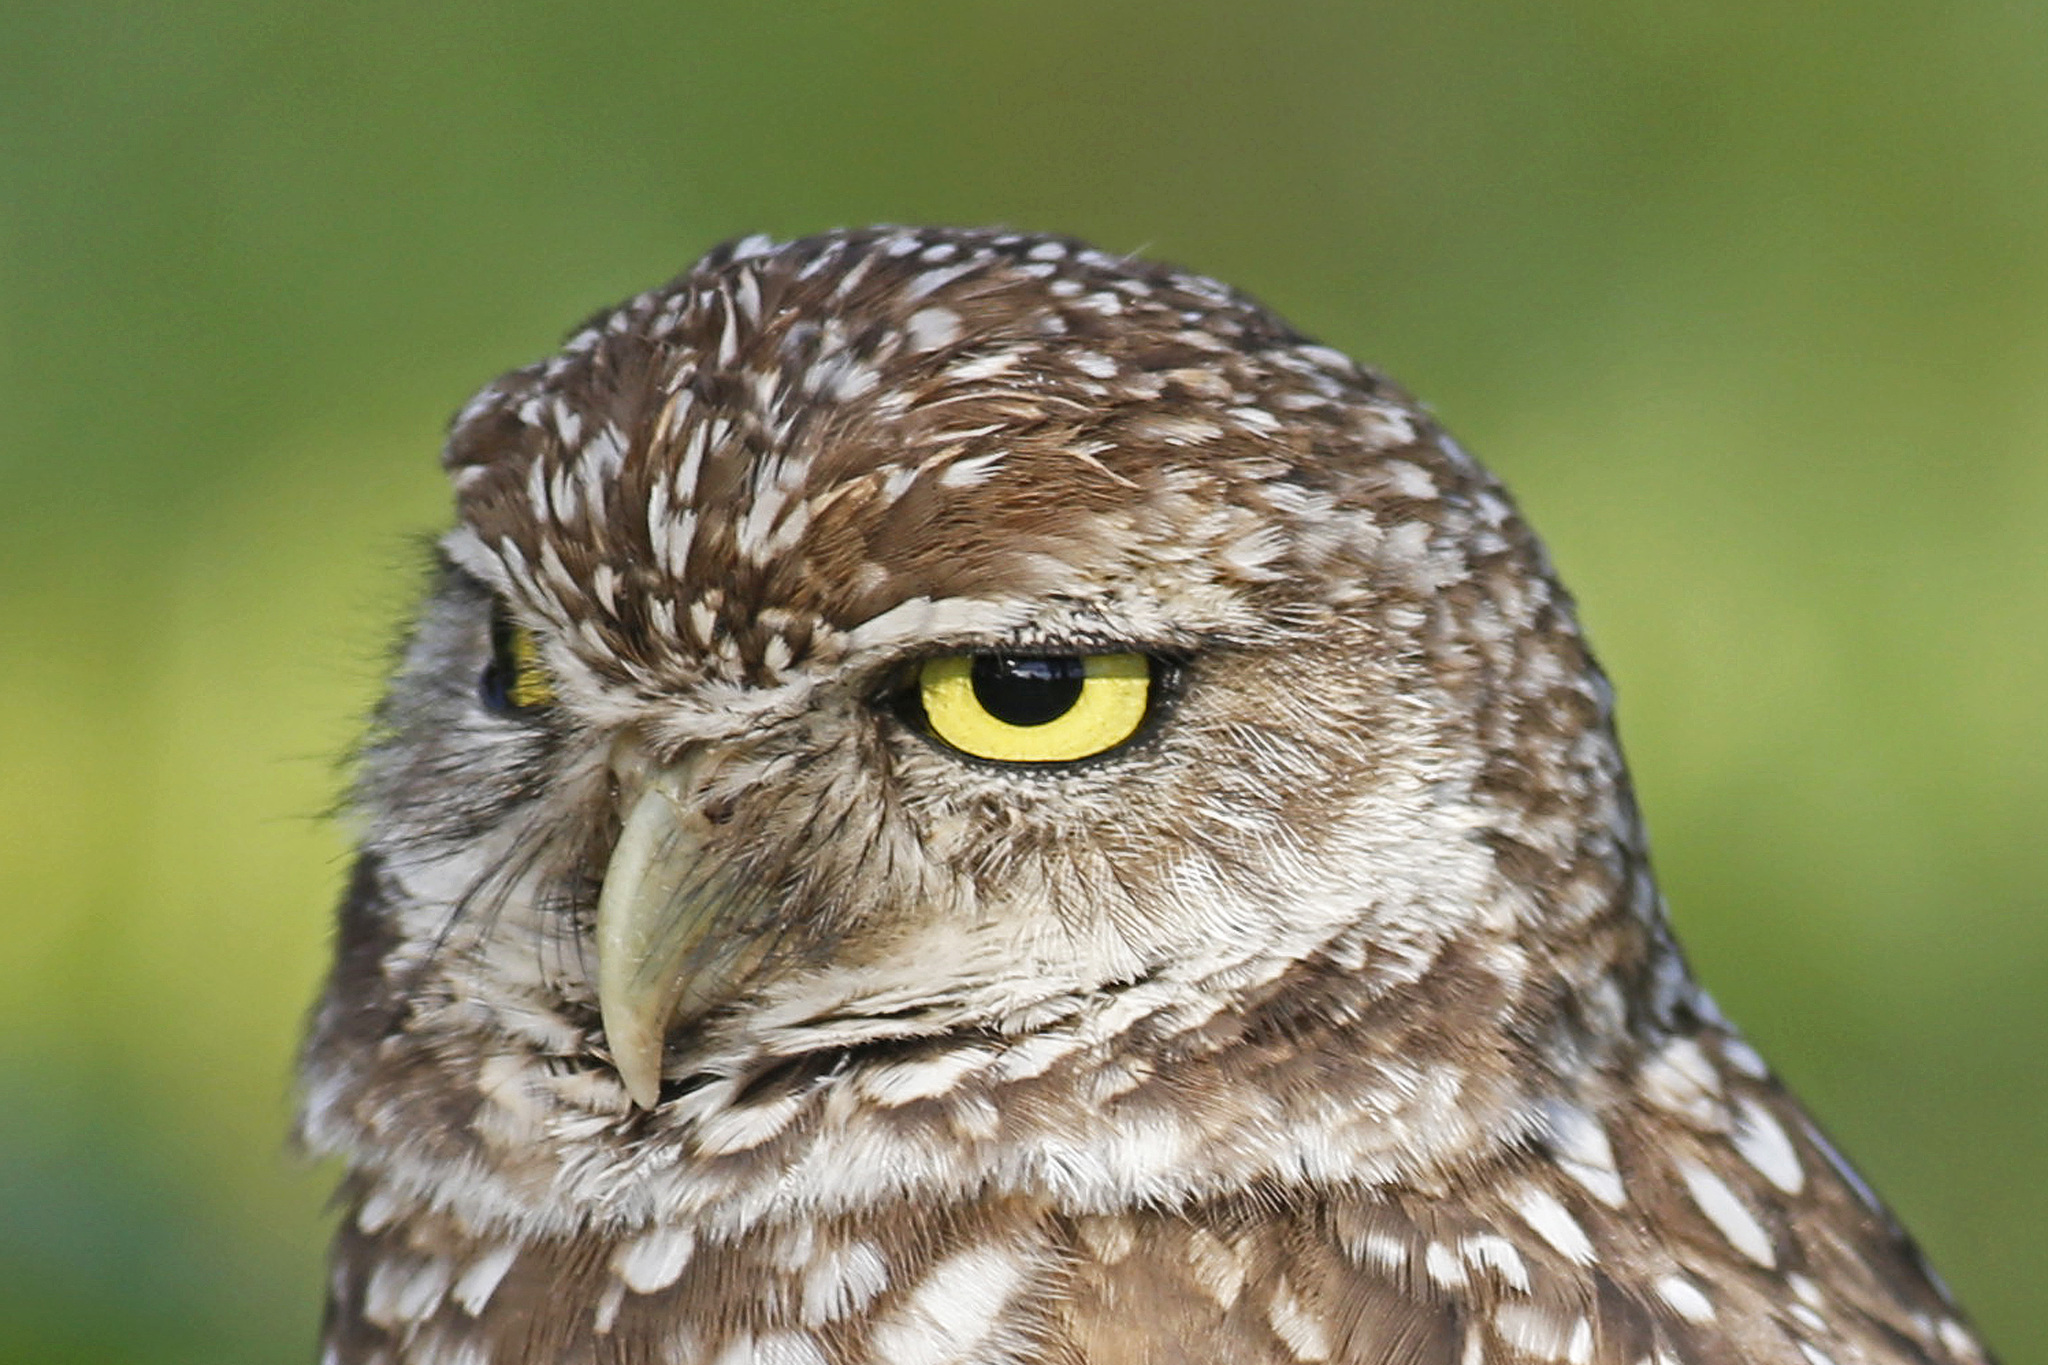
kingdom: Animalia
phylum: Chordata
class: Aves
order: Strigiformes
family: Strigidae
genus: Athene
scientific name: Athene cunicularia
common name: Burrowing owl
